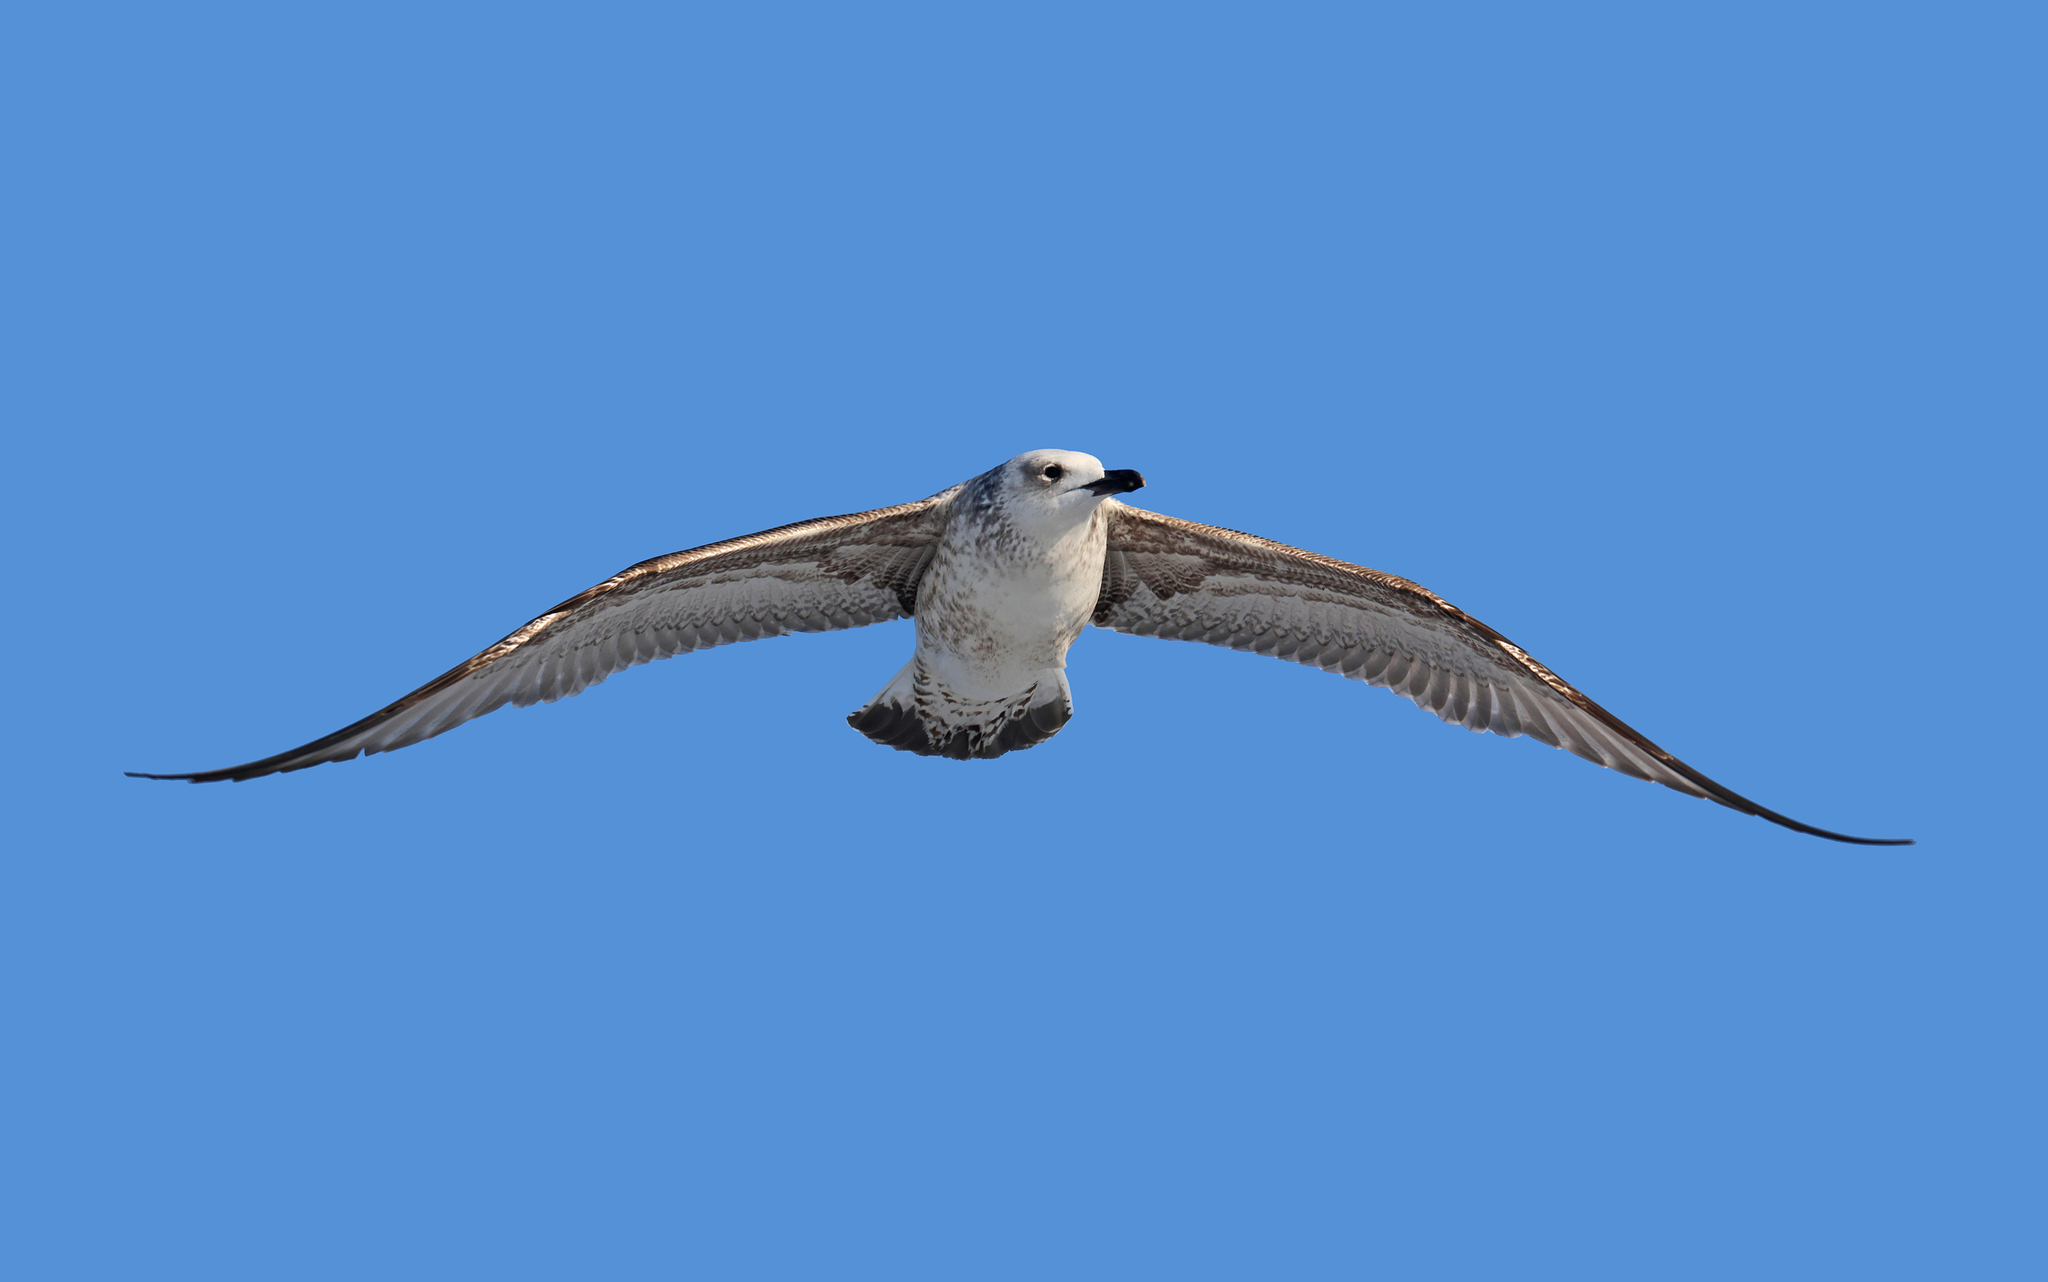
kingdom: Animalia
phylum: Chordata
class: Aves
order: Charadriiformes
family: Laridae
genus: Larus
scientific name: Larus michahellis
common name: Yellow-legged gull
